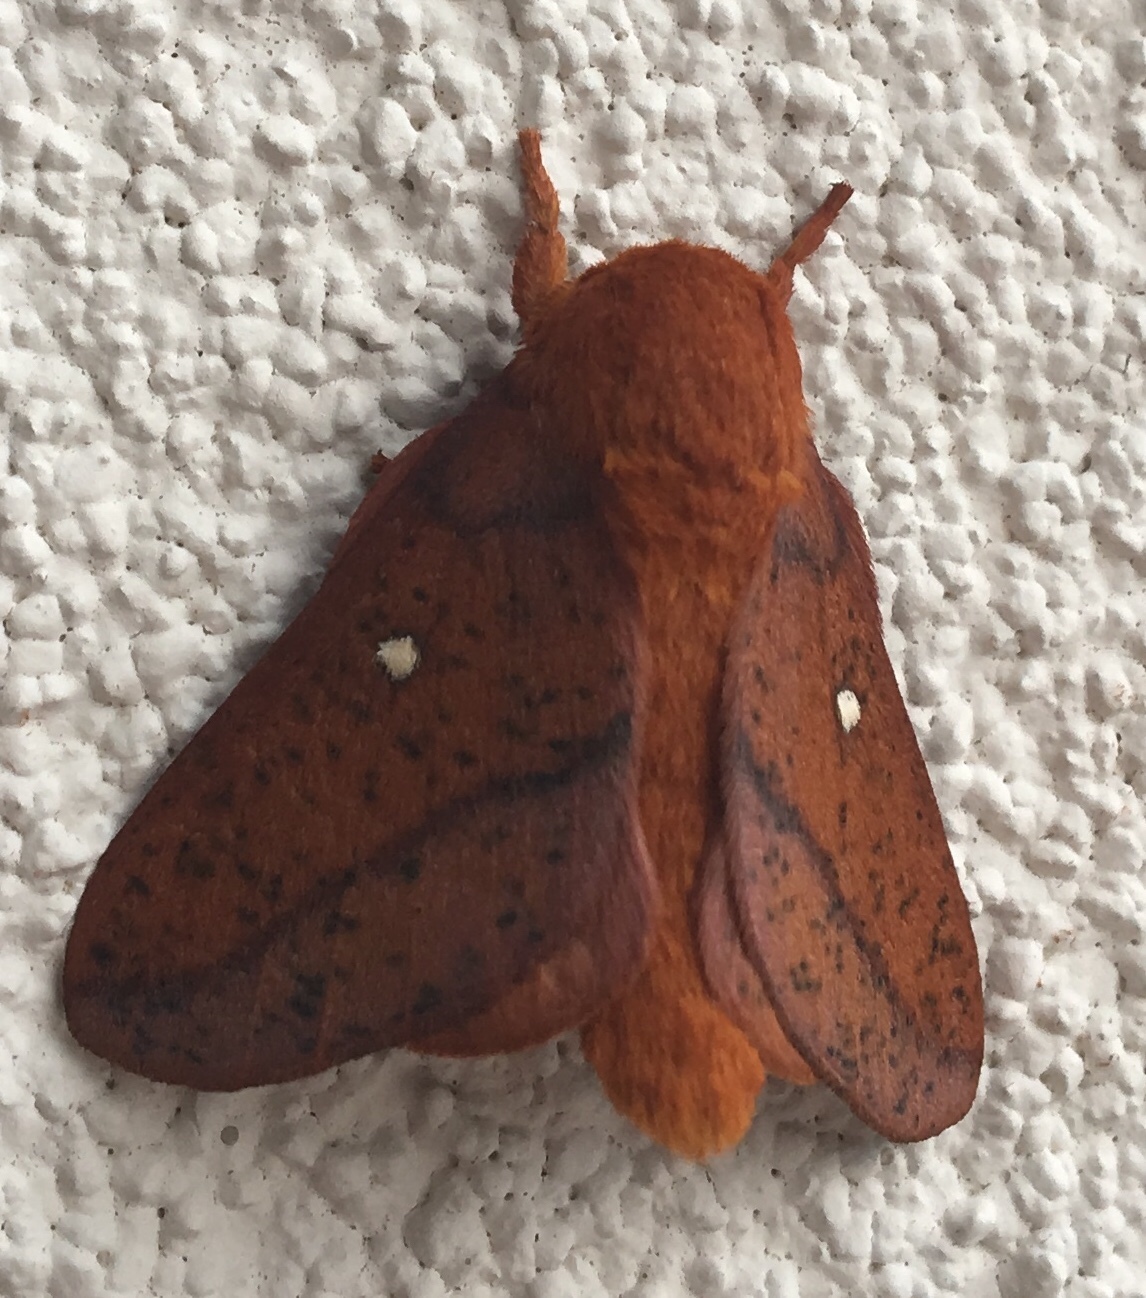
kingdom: Animalia
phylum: Arthropoda
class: Insecta
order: Lepidoptera
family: Saturniidae
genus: Anisota
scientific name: Anisota stigma
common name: Spiny oakworm moth
